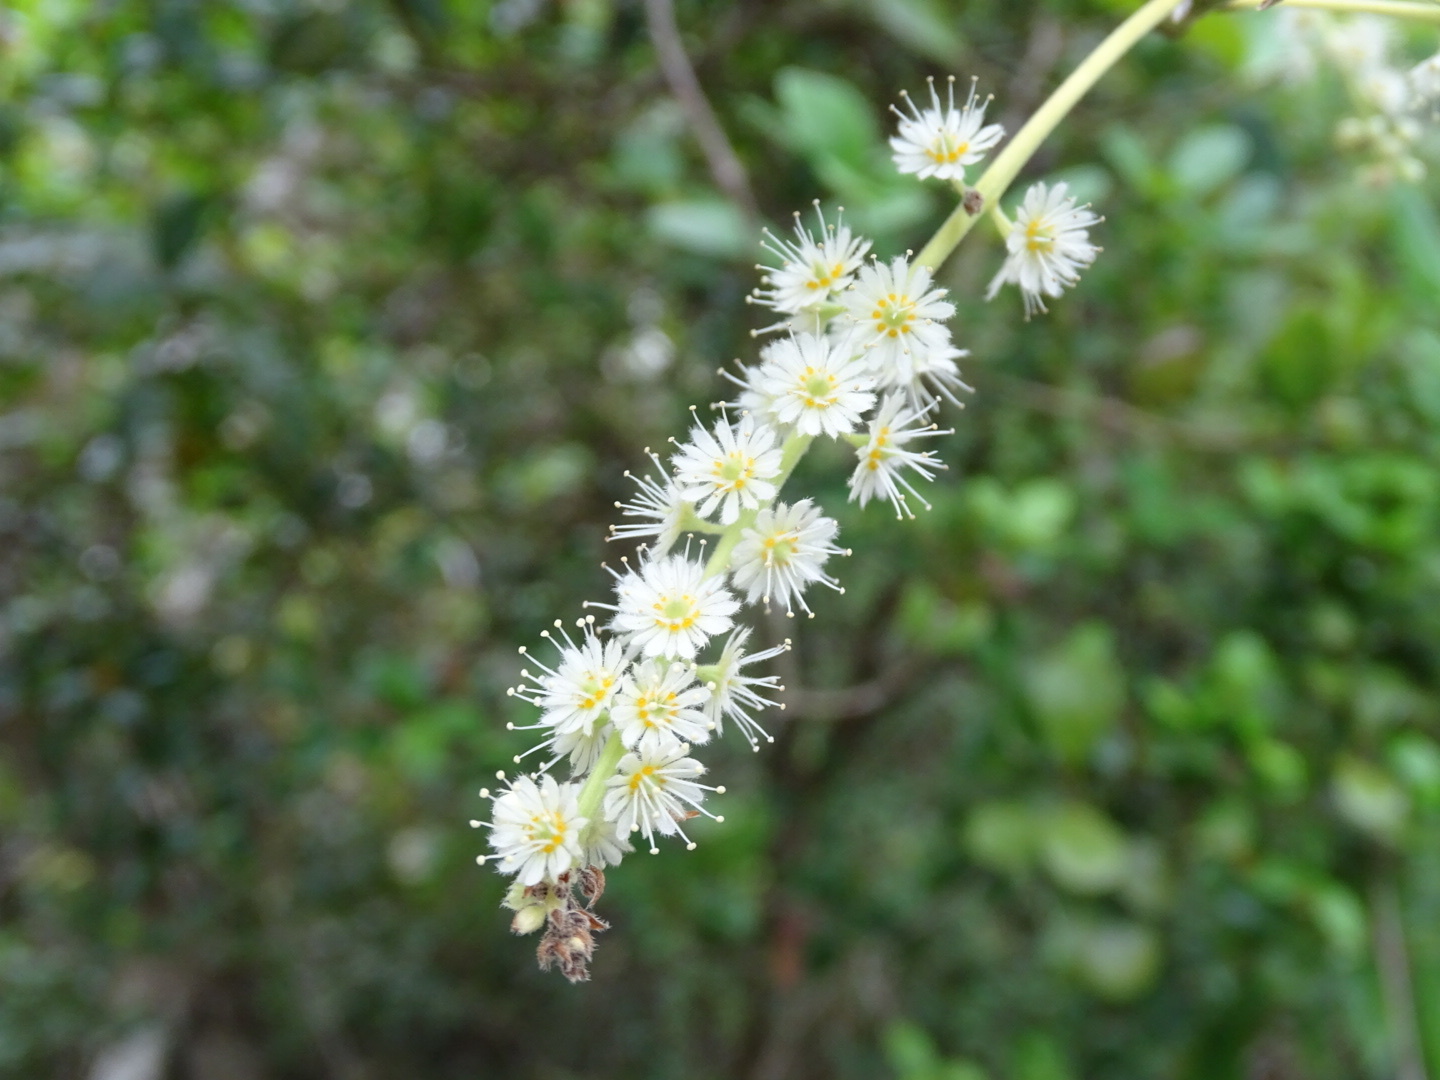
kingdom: Plantae
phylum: Tracheophyta
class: Magnoliopsida
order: Malpighiales
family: Salicaceae
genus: Homalium
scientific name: Homalium cochinchinensis
